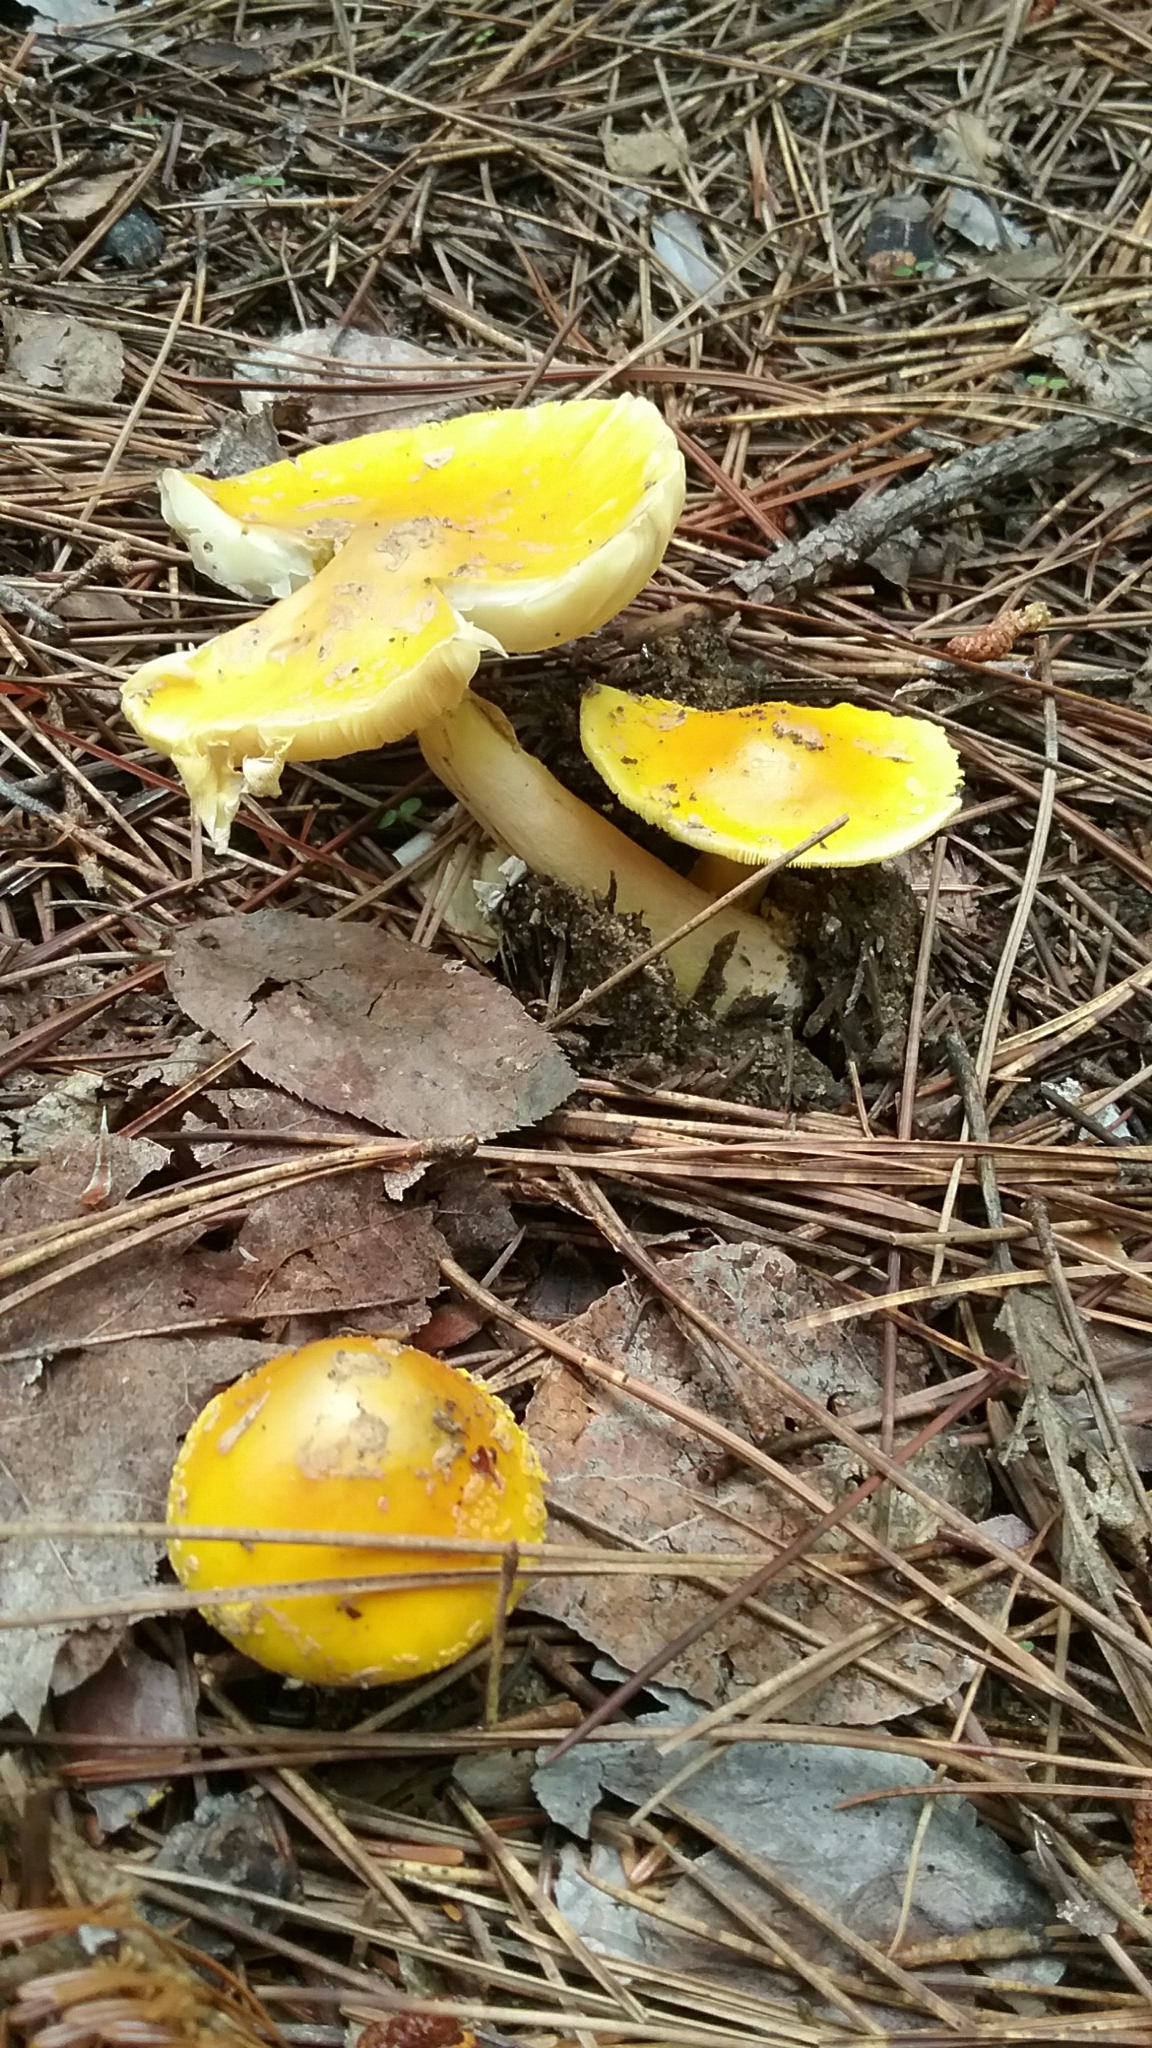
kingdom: Fungi
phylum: Basidiomycota
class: Agaricomycetes
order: Agaricales
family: Amanitaceae
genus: Amanita
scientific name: Amanita flavoconia
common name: Yellow patches
